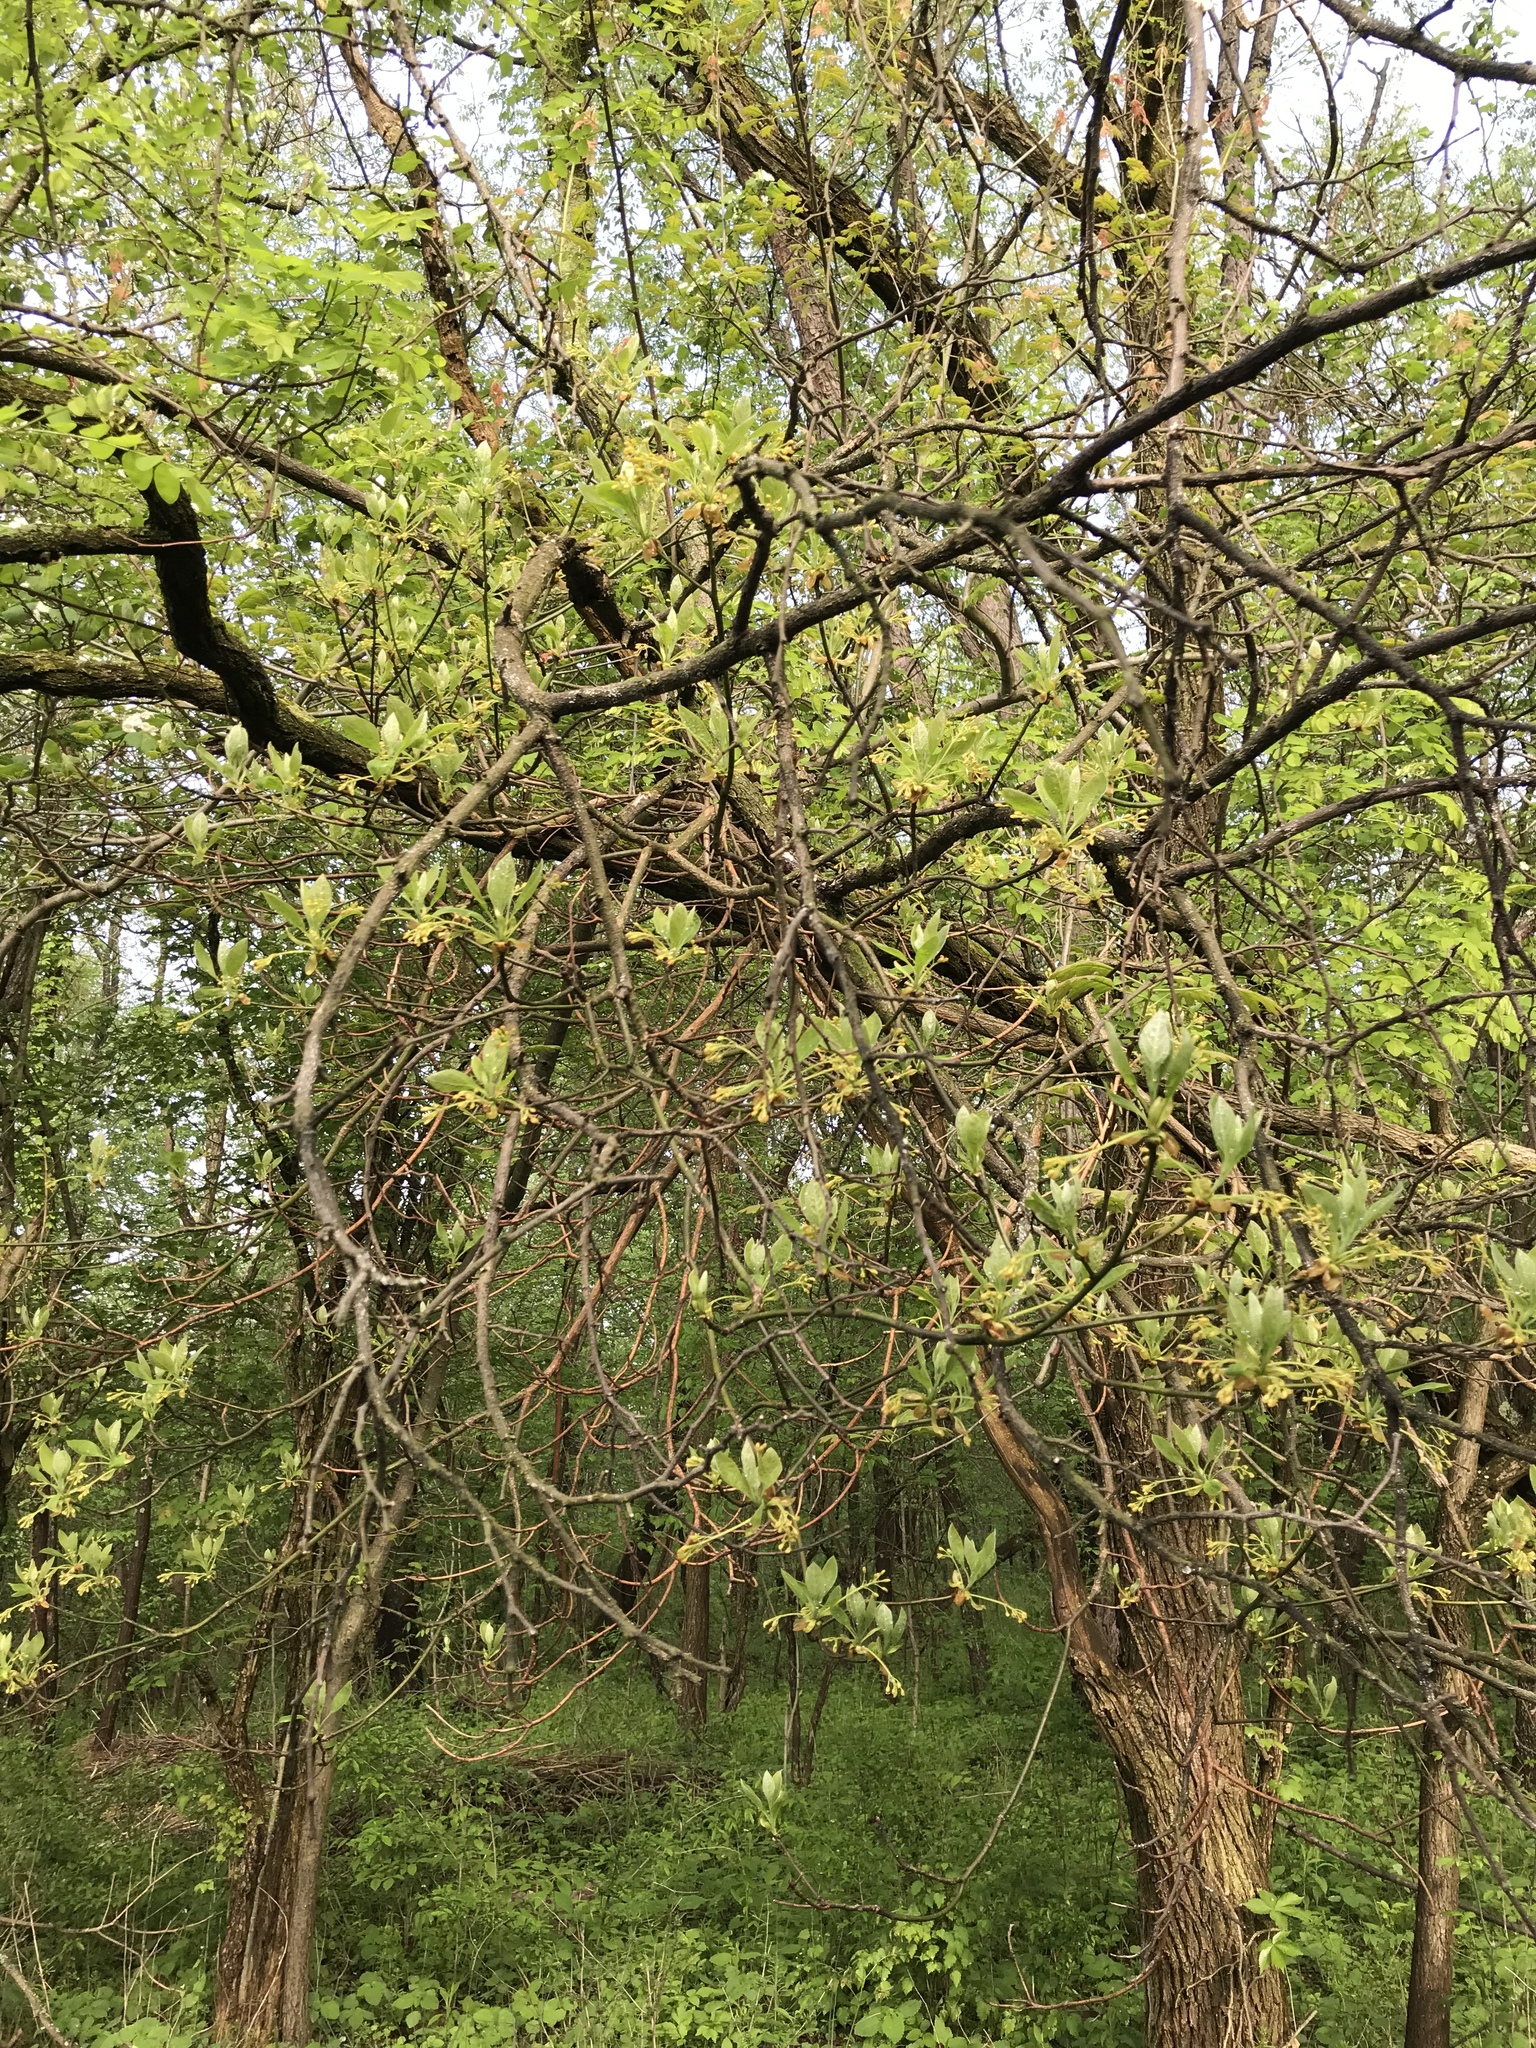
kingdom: Plantae
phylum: Tracheophyta
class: Magnoliopsida
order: Laurales
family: Lauraceae
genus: Sassafras
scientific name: Sassafras albidum
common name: Sassafras
